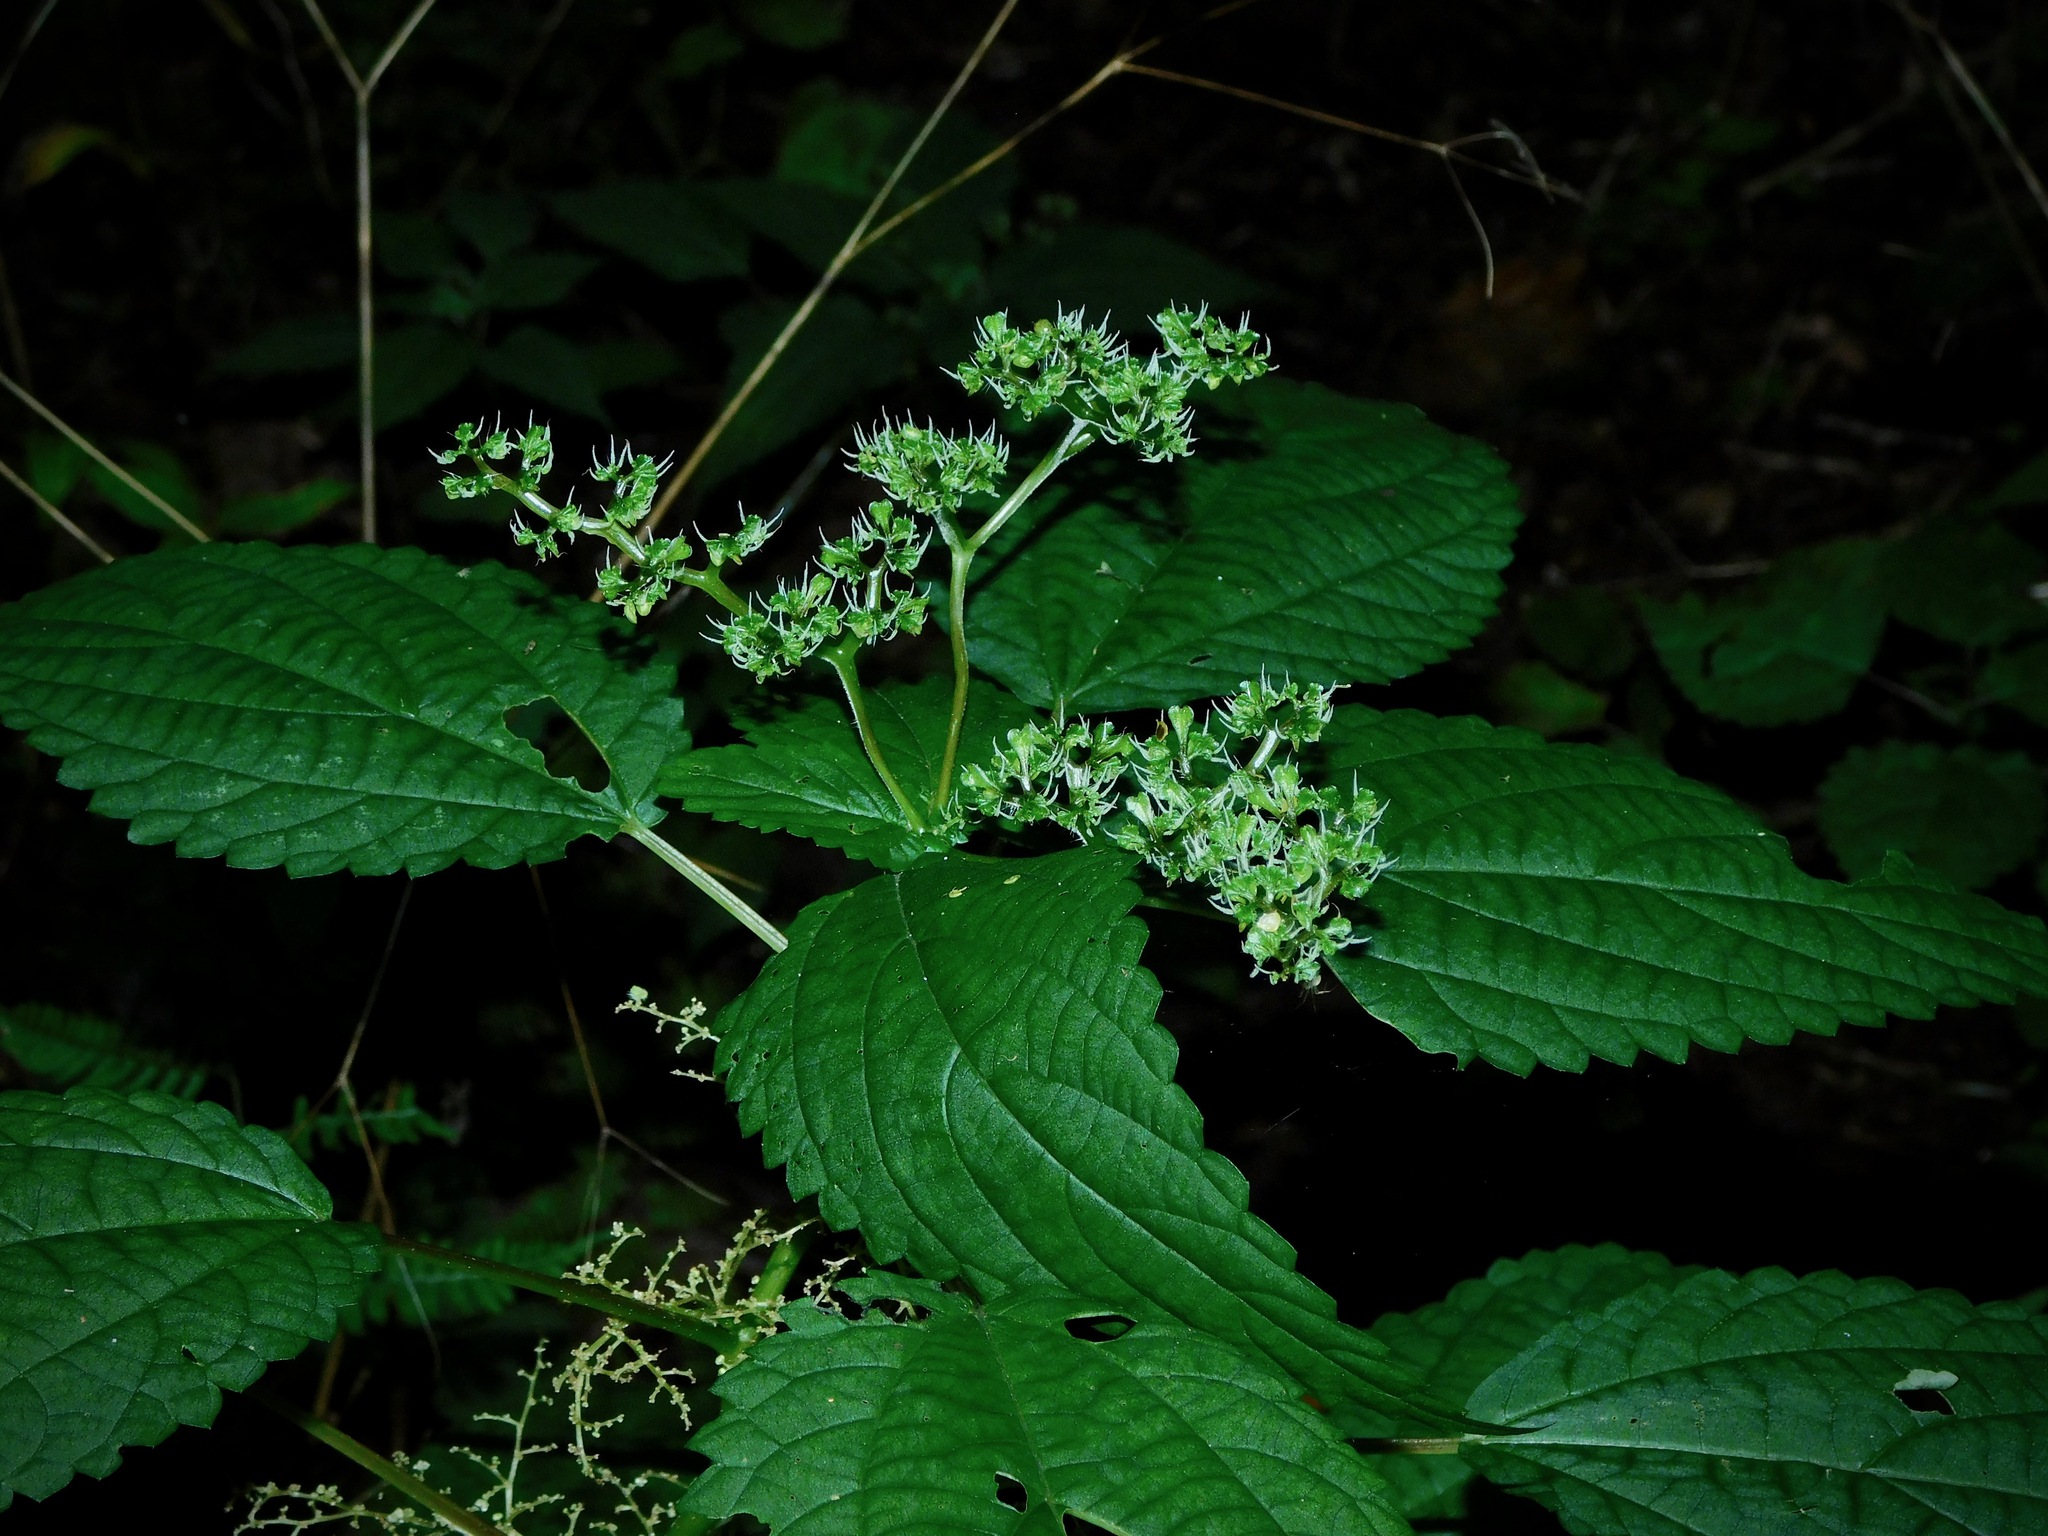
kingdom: Plantae
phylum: Tracheophyta
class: Magnoliopsida
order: Rosales
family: Urticaceae
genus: Laportea
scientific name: Laportea canadensis
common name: Canada nettle
